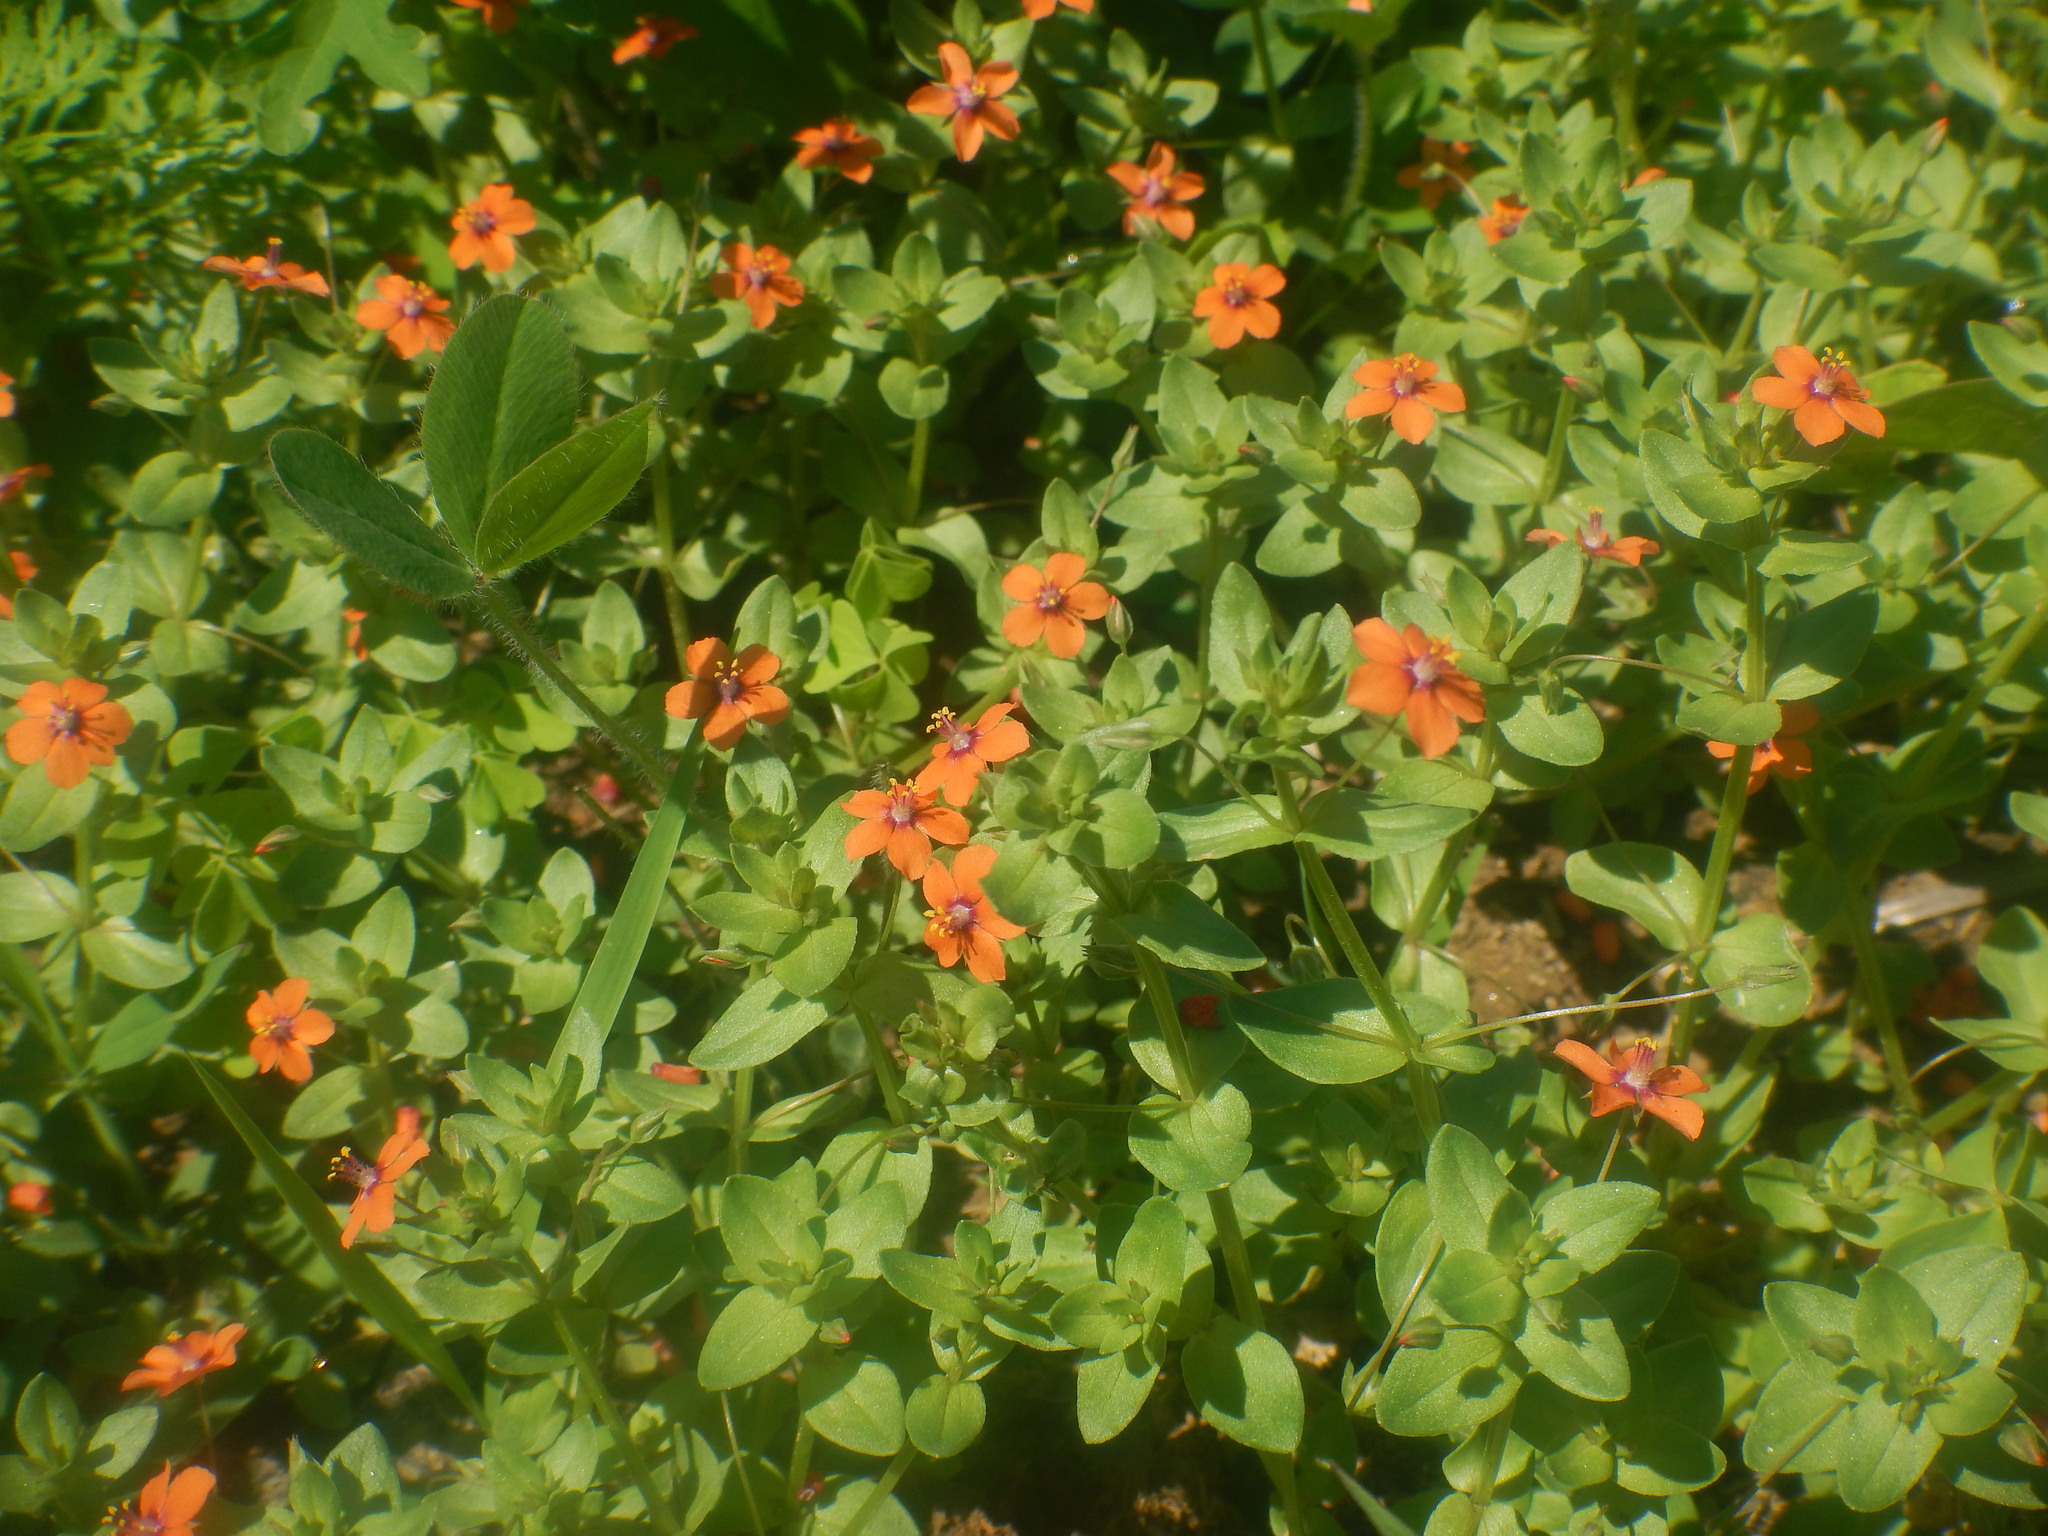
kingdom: Plantae
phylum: Tracheophyta
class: Magnoliopsida
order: Ericales
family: Primulaceae
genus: Lysimachia
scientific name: Lysimachia arvensis
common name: Scarlet pimpernel
